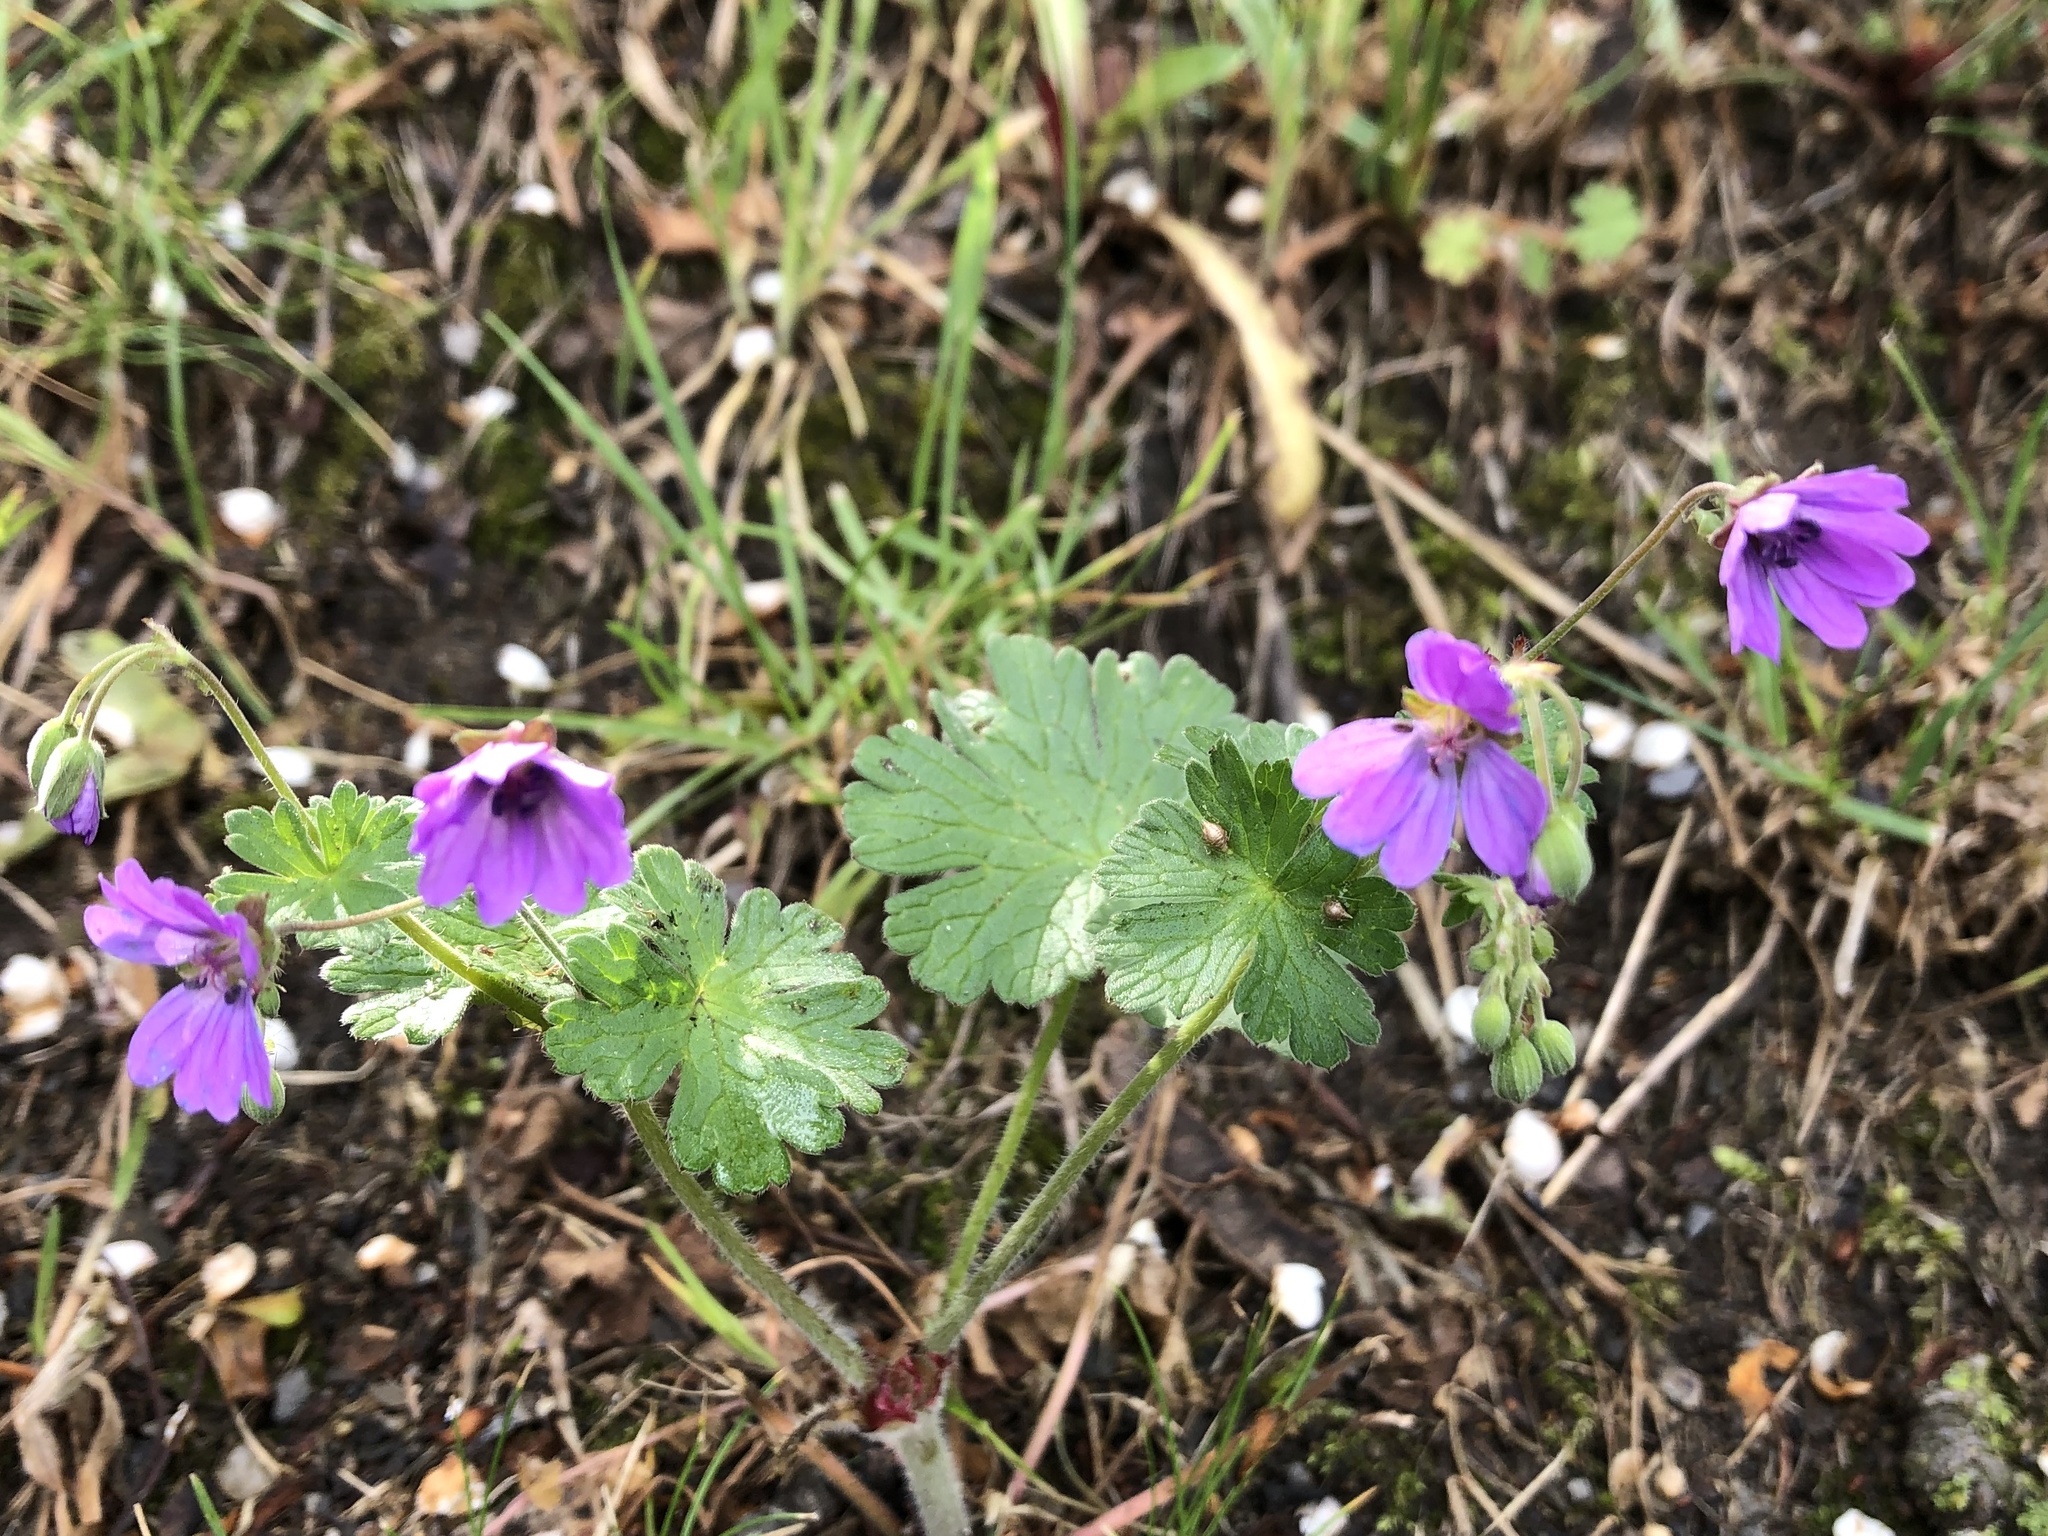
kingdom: Plantae
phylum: Tracheophyta
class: Magnoliopsida
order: Geraniales
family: Geraniaceae
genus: Geranium
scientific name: Geranium pyrenaicum
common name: Hedgerow crane's-bill
